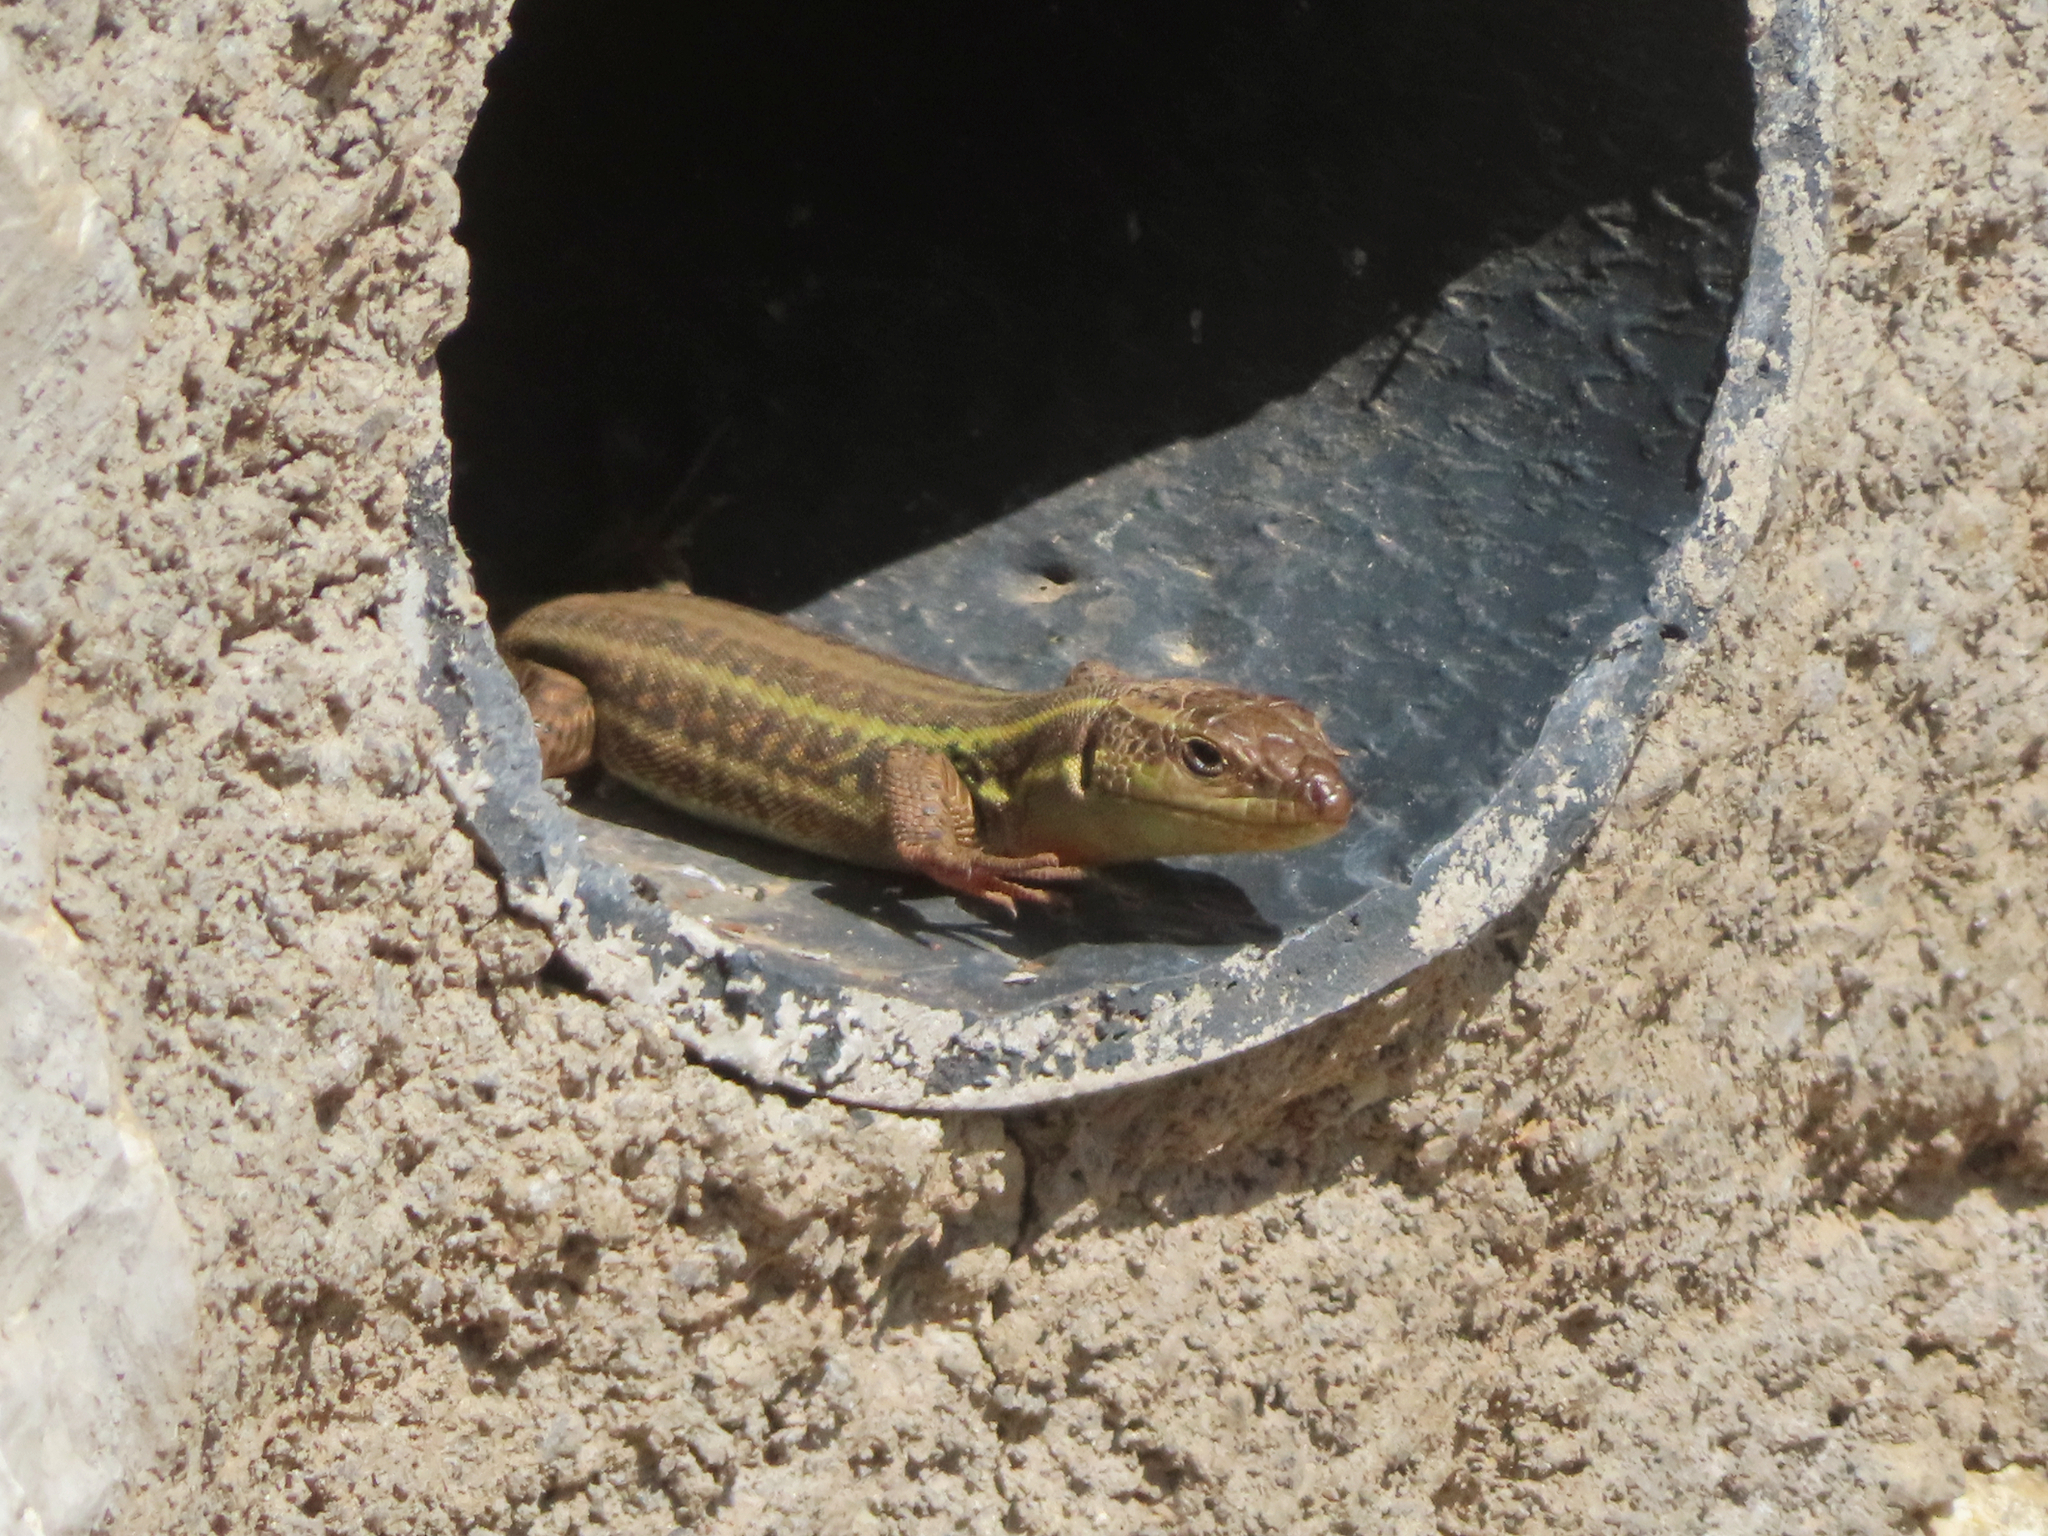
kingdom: Animalia
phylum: Chordata
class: Squamata
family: Lacertidae
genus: Podarcis
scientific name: Podarcis peloponnesiacus
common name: Peloponnese wall lizard
